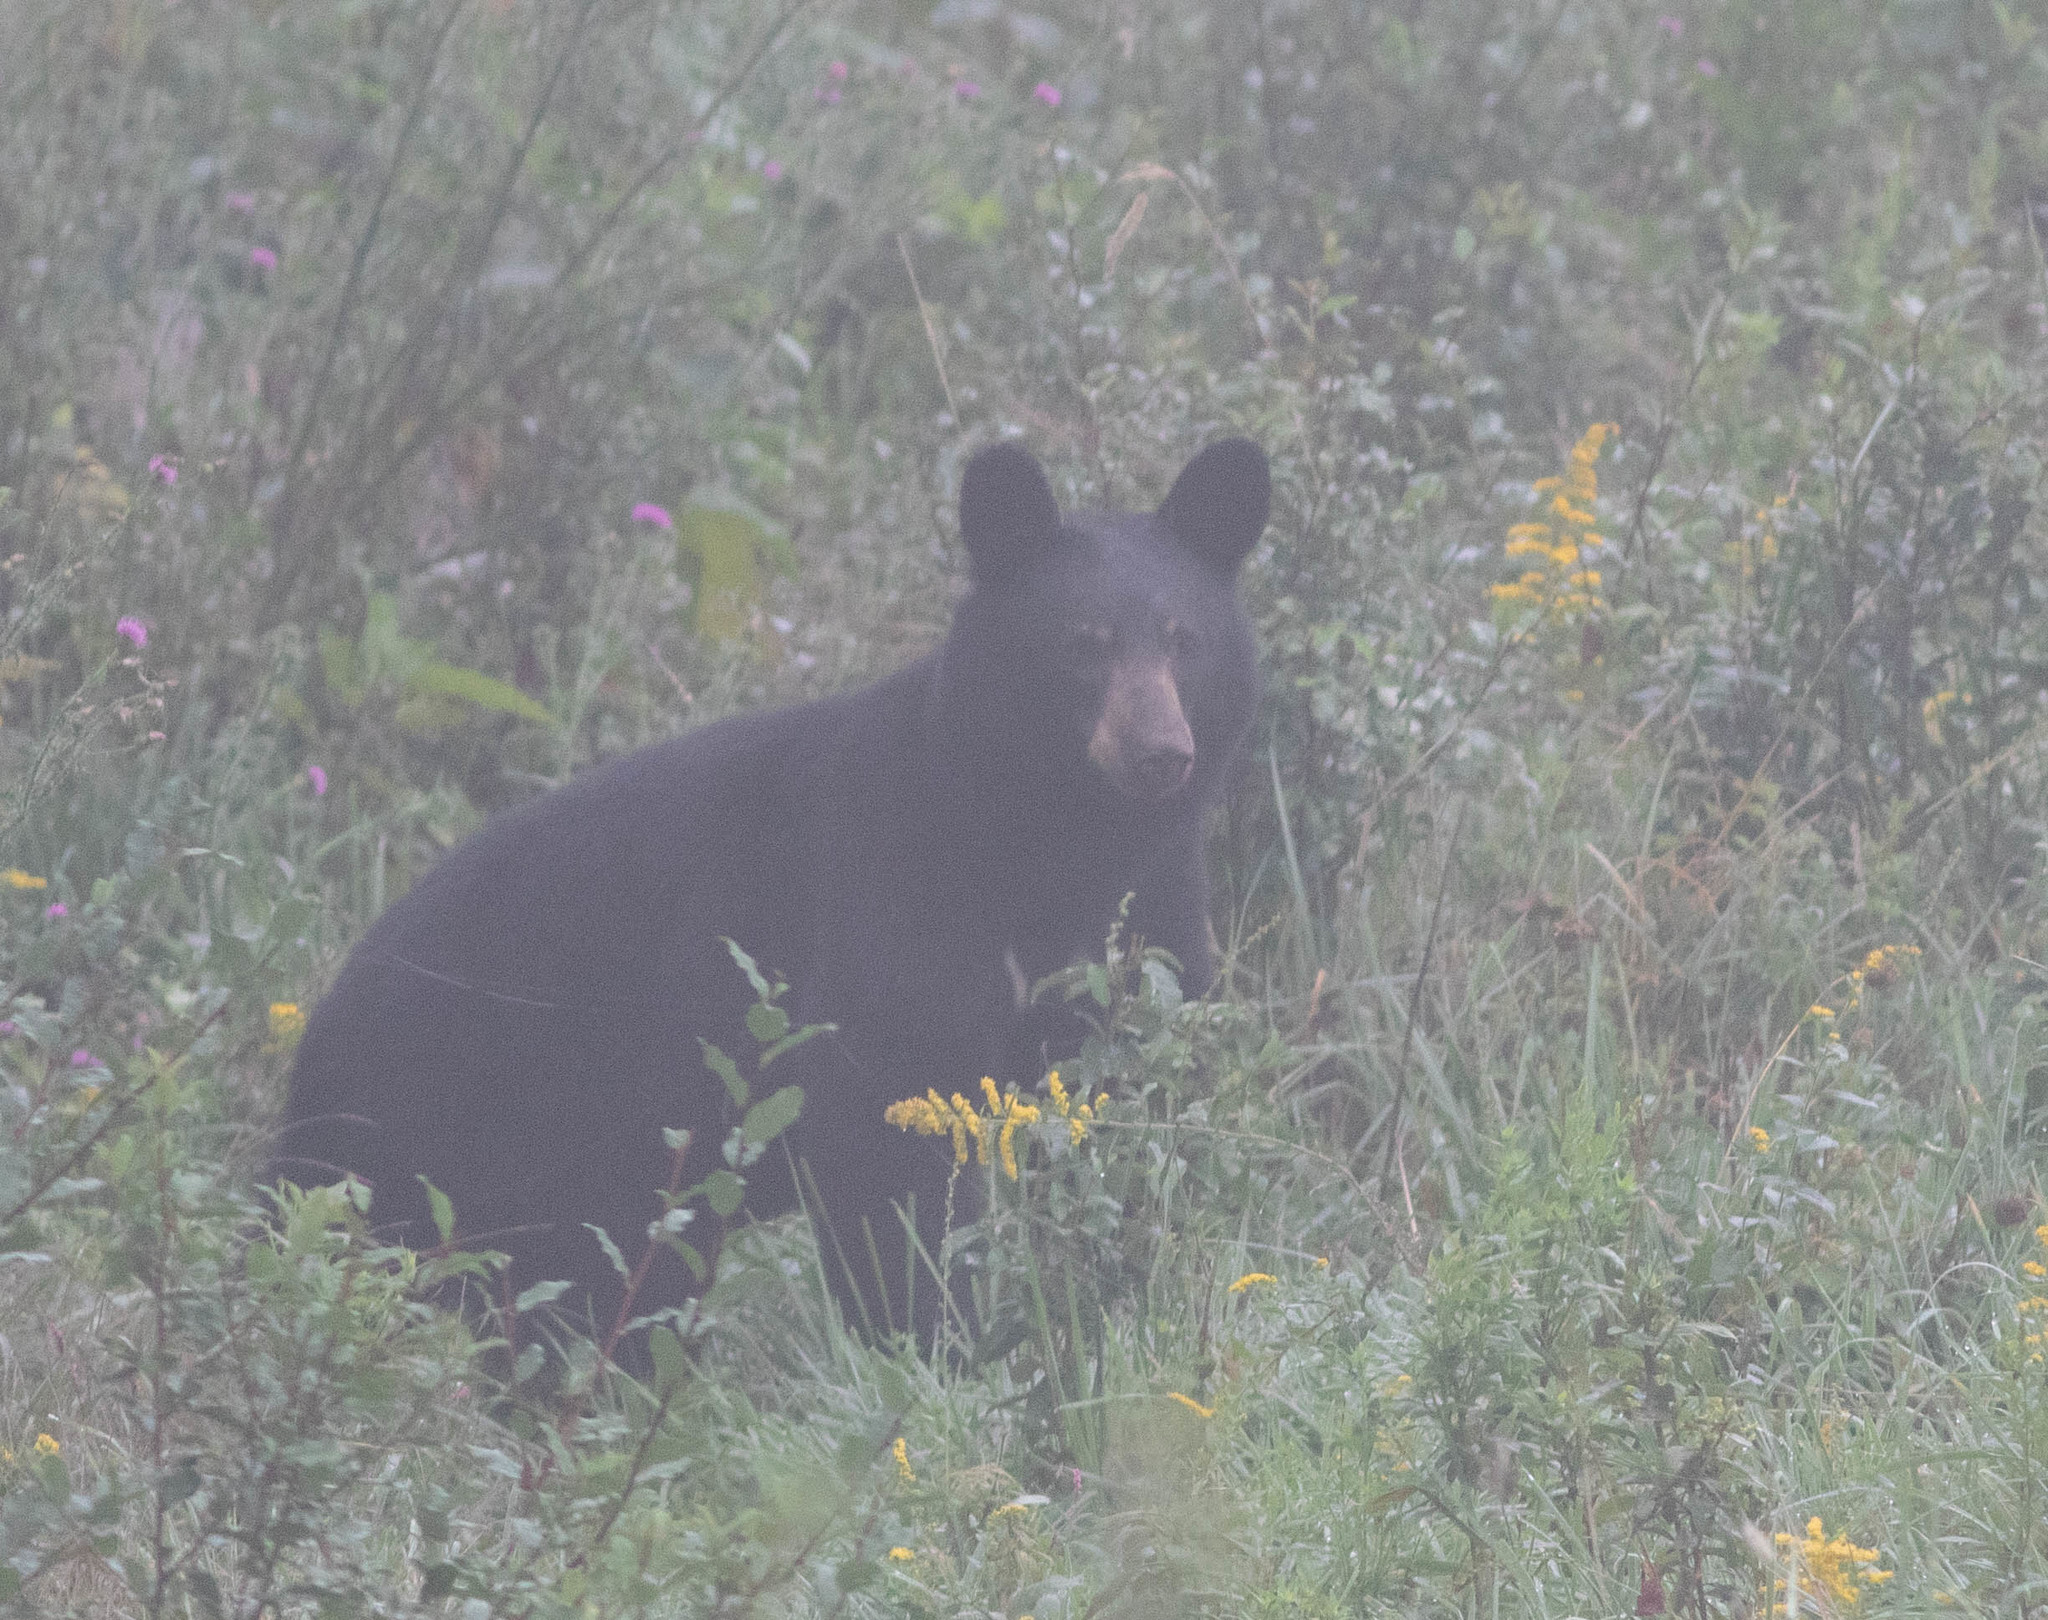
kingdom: Animalia
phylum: Chordata
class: Mammalia
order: Carnivora
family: Ursidae
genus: Ursus
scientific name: Ursus americanus
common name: American black bear
